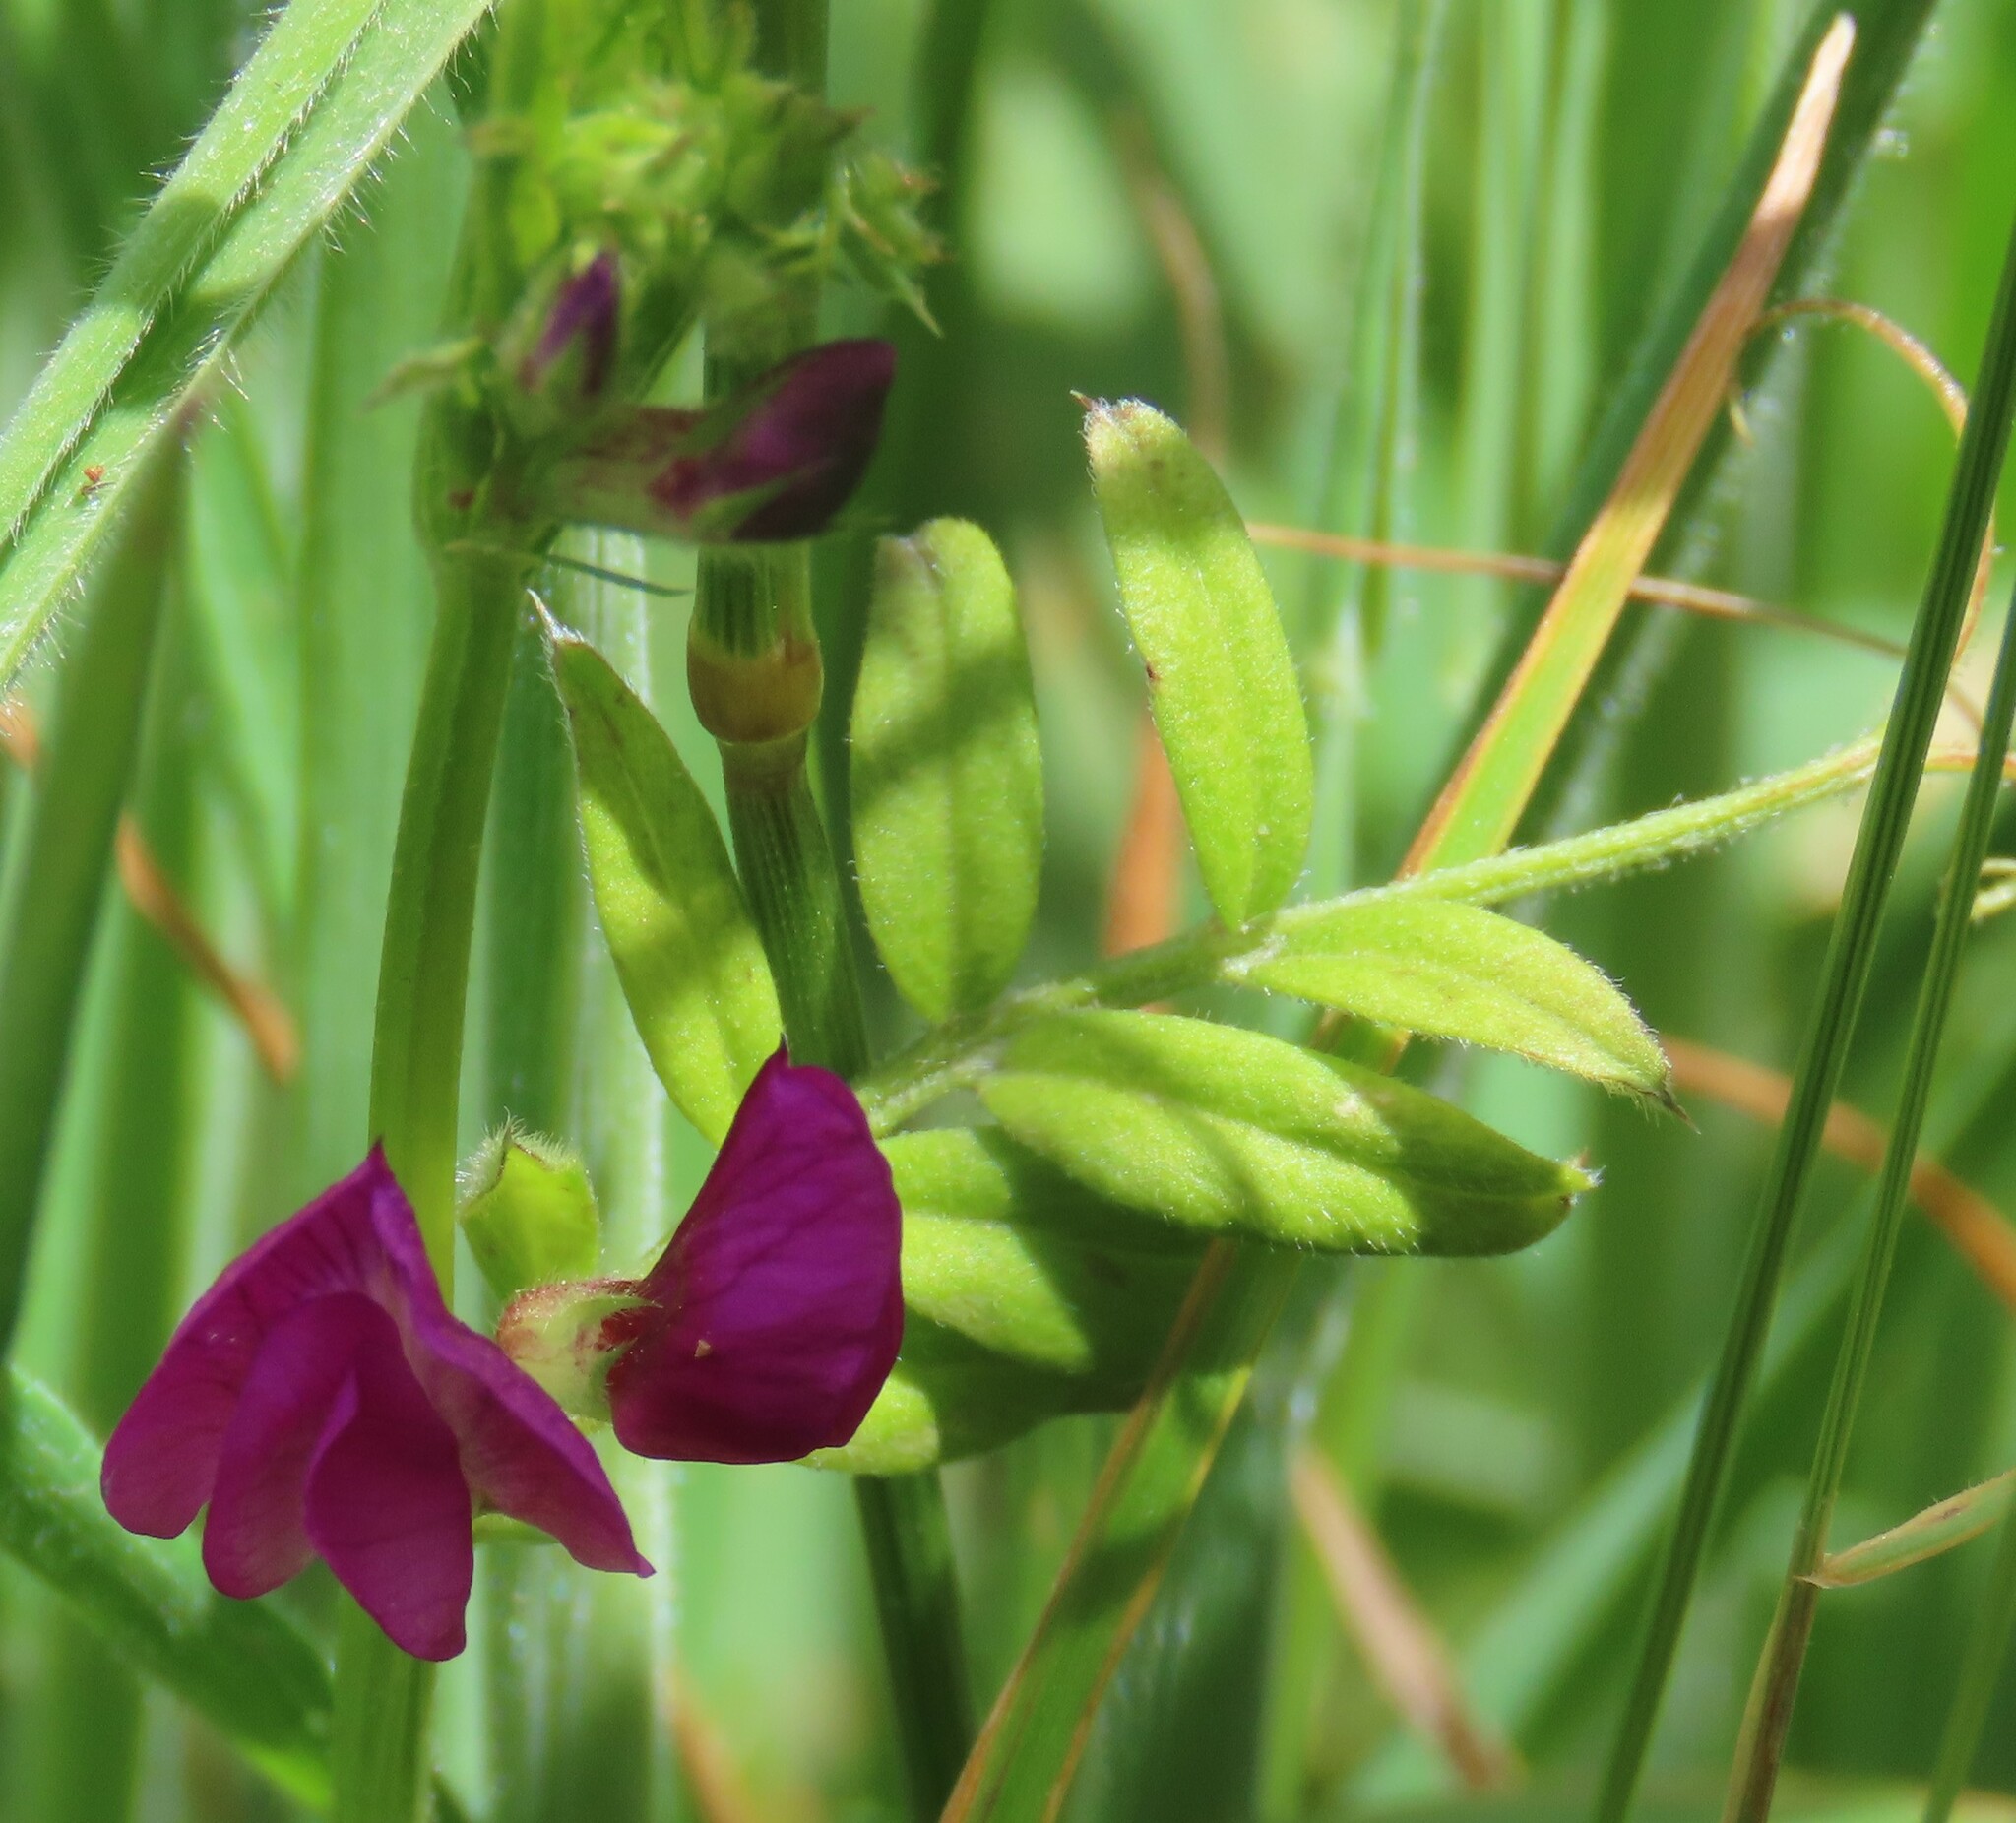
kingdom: Plantae
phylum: Tracheophyta
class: Magnoliopsida
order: Fabales
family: Fabaceae
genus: Vicia
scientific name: Vicia sativa
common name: Garden vetch
